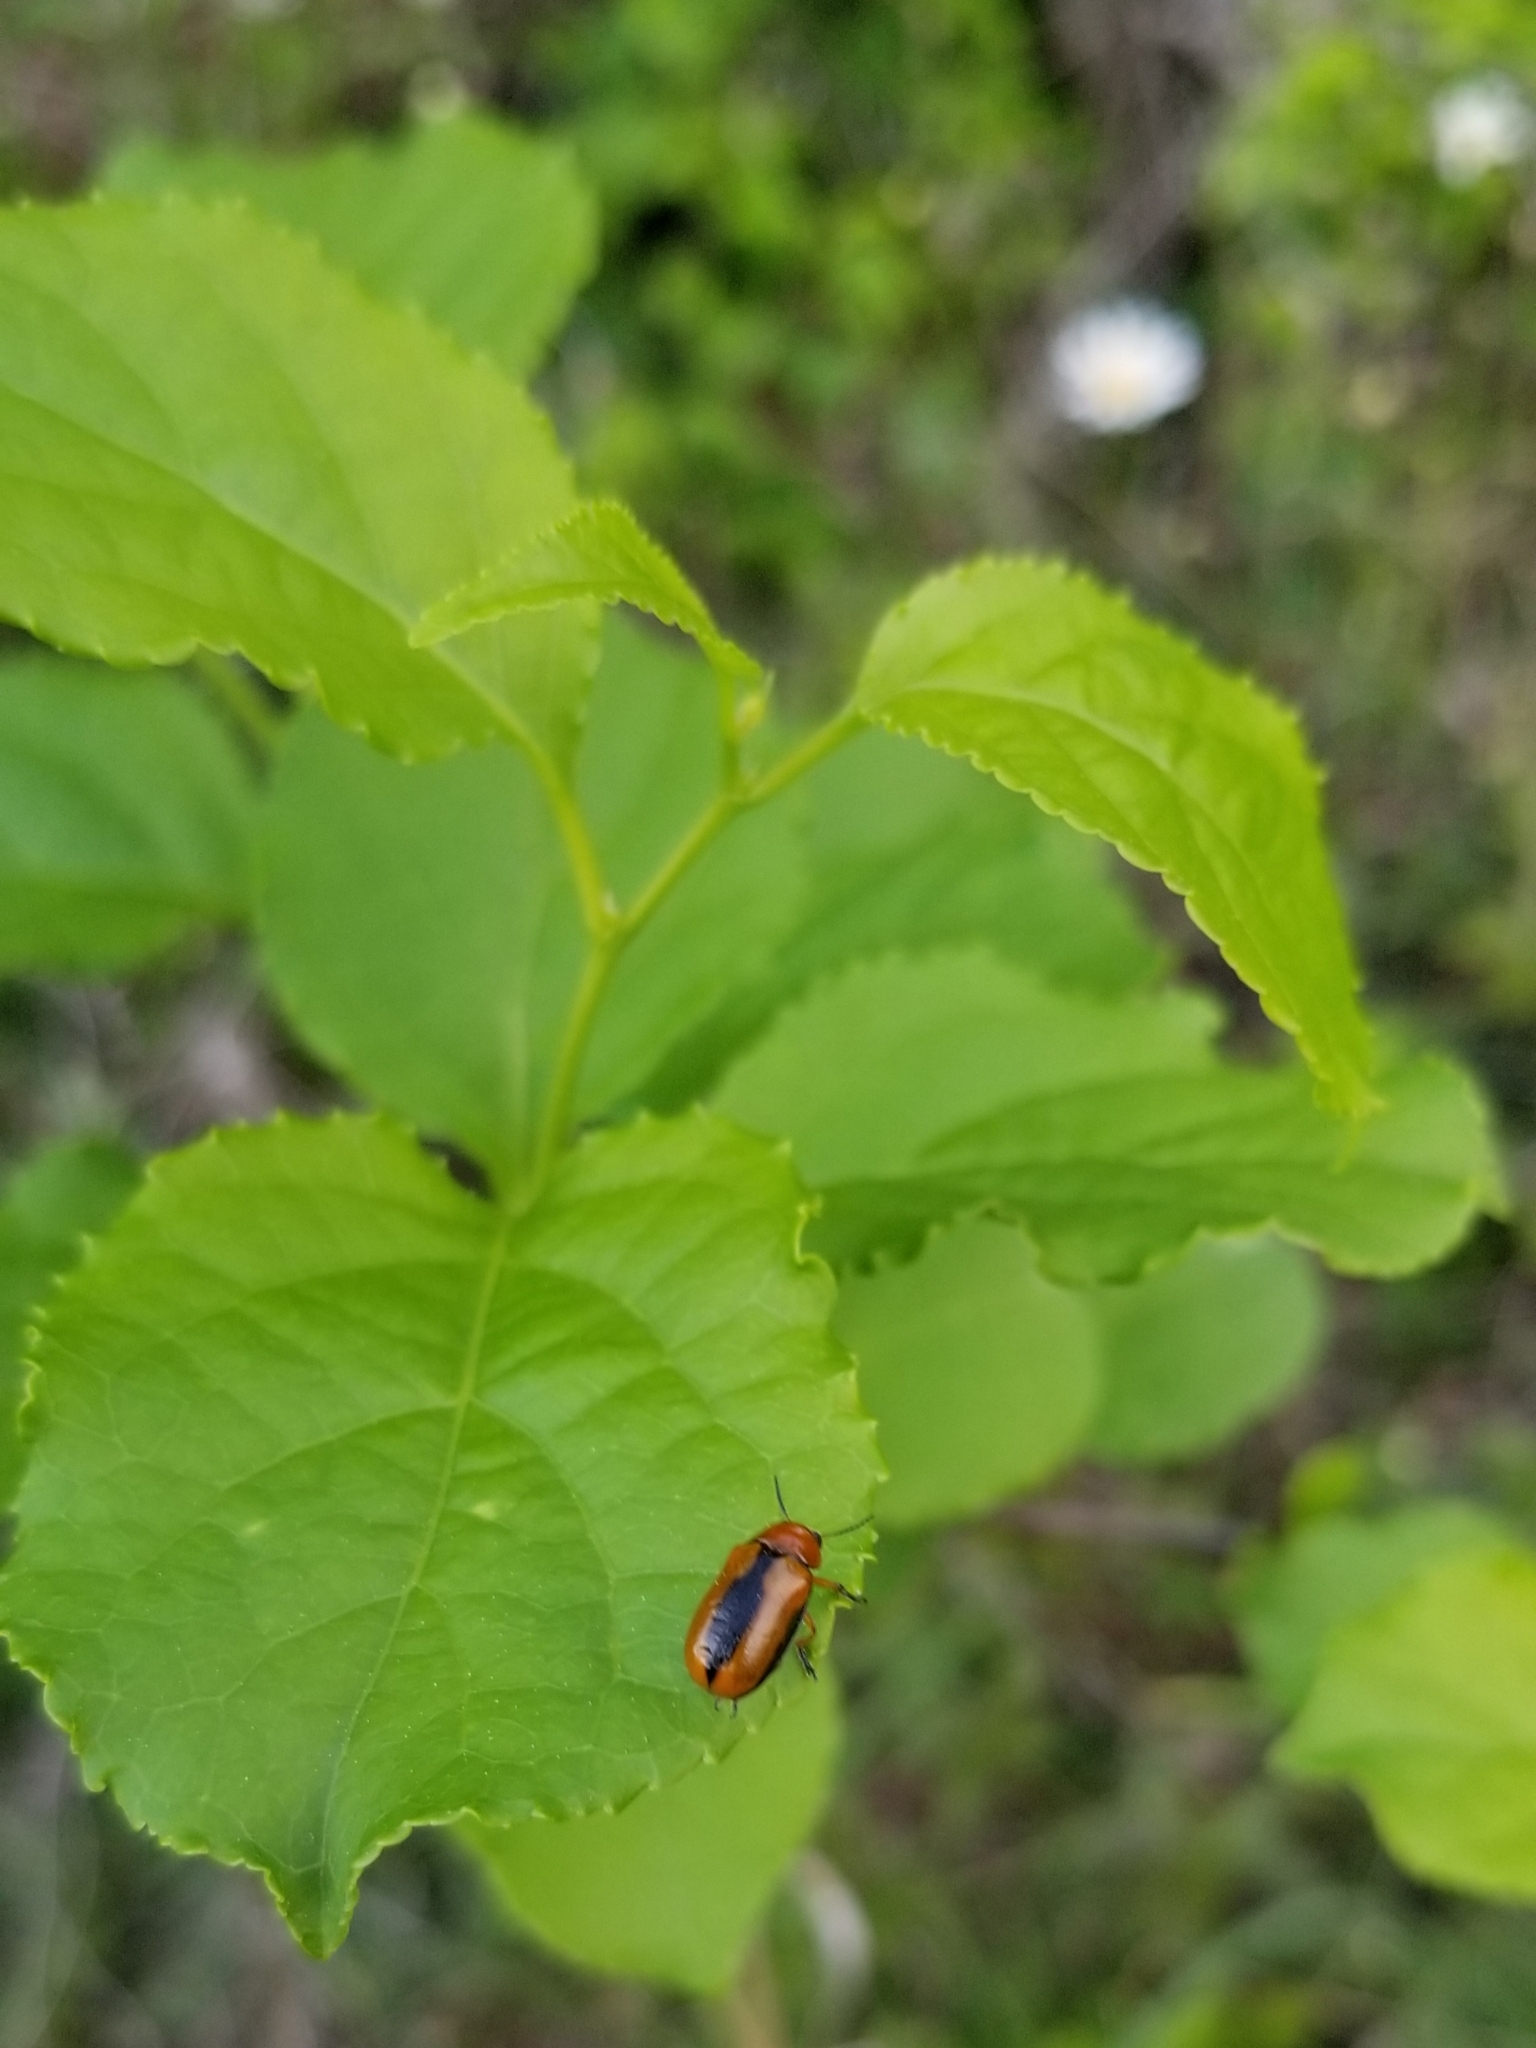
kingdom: Animalia
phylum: Arthropoda
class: Insecta
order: Coleoptera
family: Chrysomelidae
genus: Anomoea
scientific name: Anomoea laticlavia
